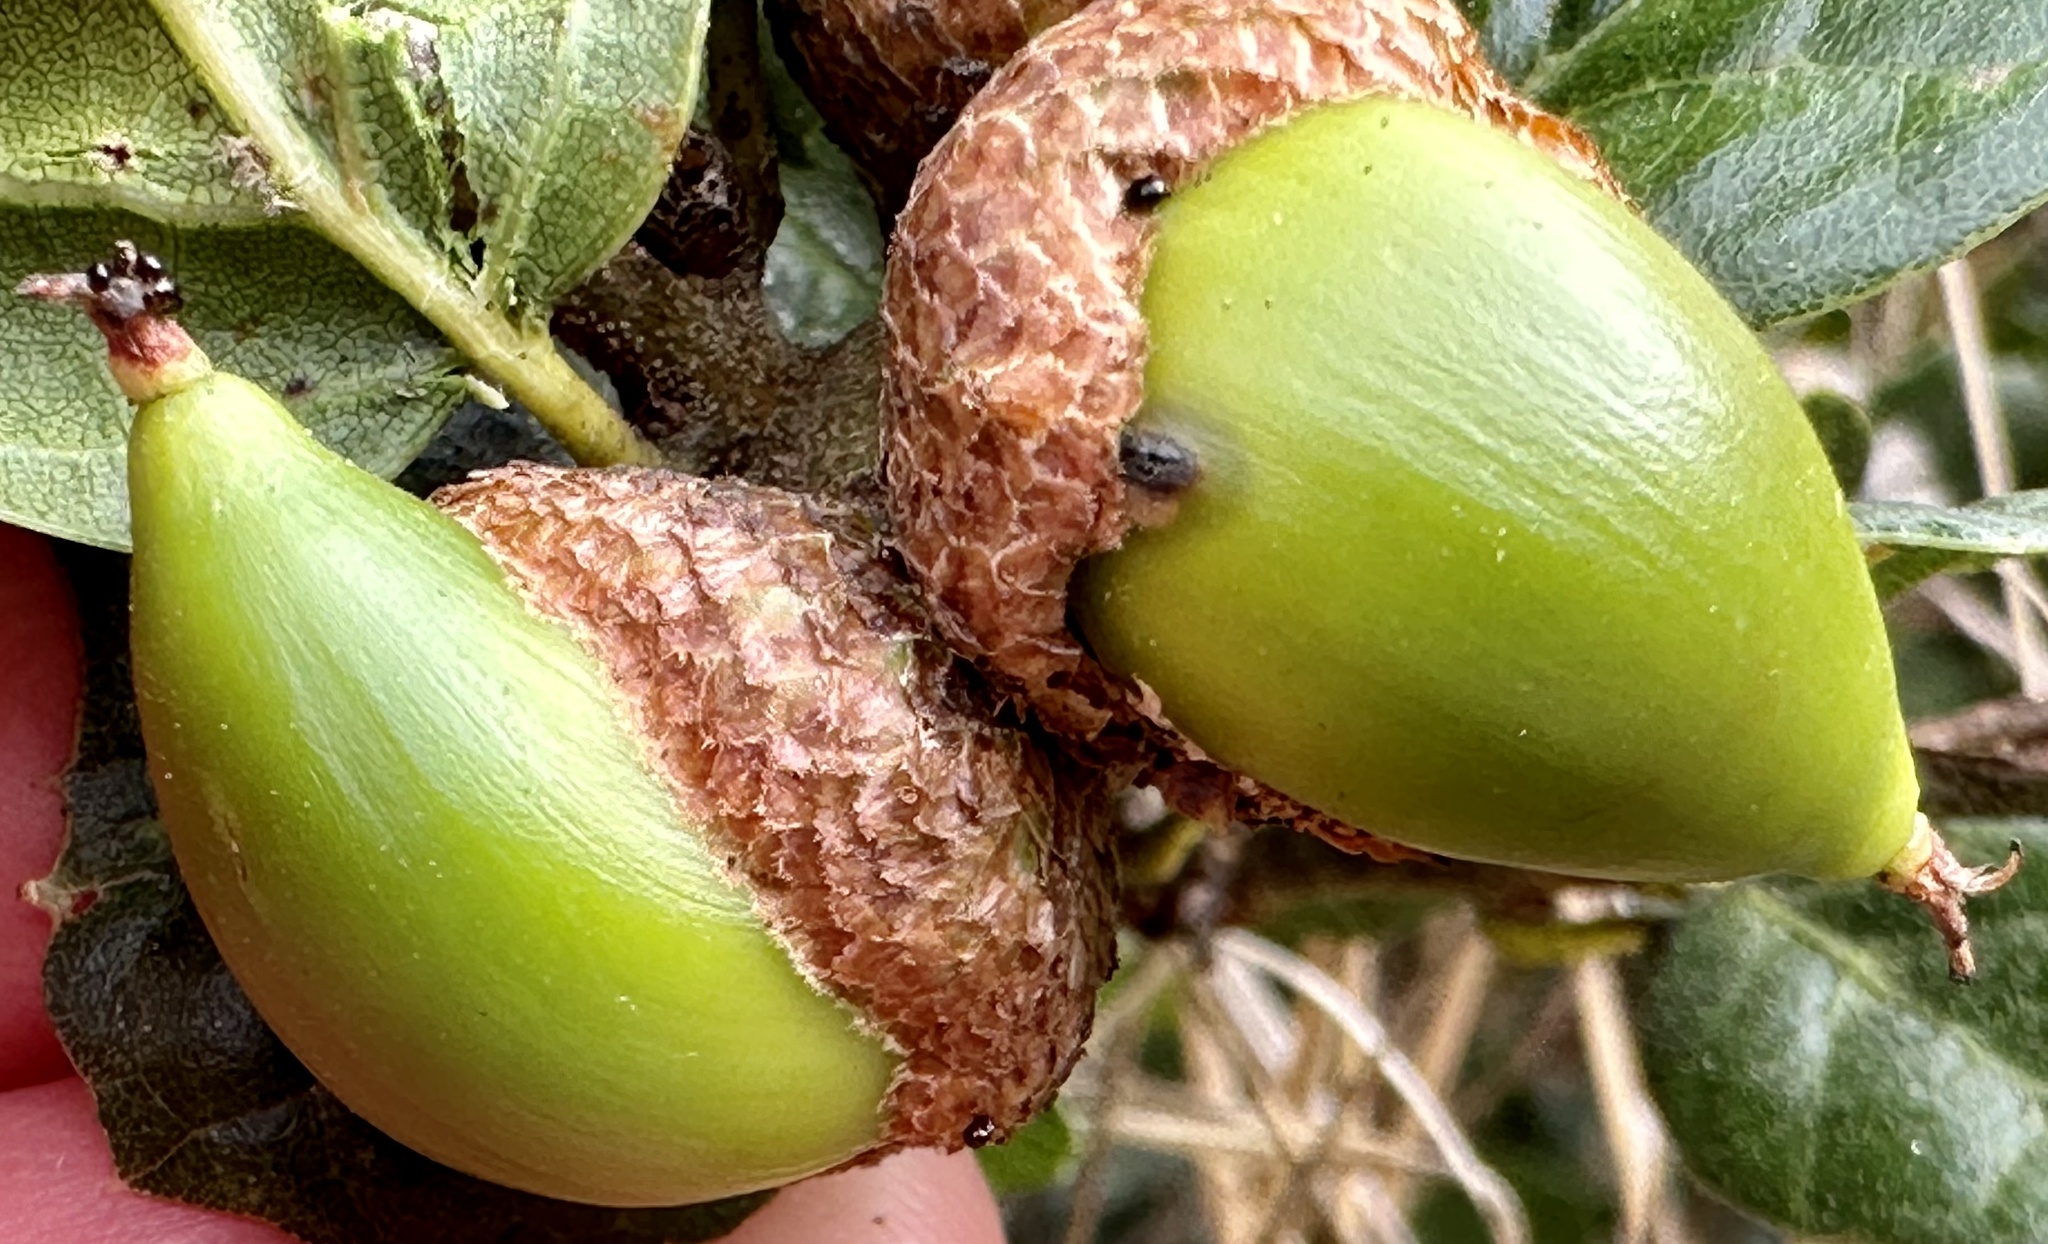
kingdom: Animalia
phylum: Arthropoda
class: Insecta
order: Hymenoptera
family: Cynipidae
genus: Callirhytis
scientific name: Callirhytis
